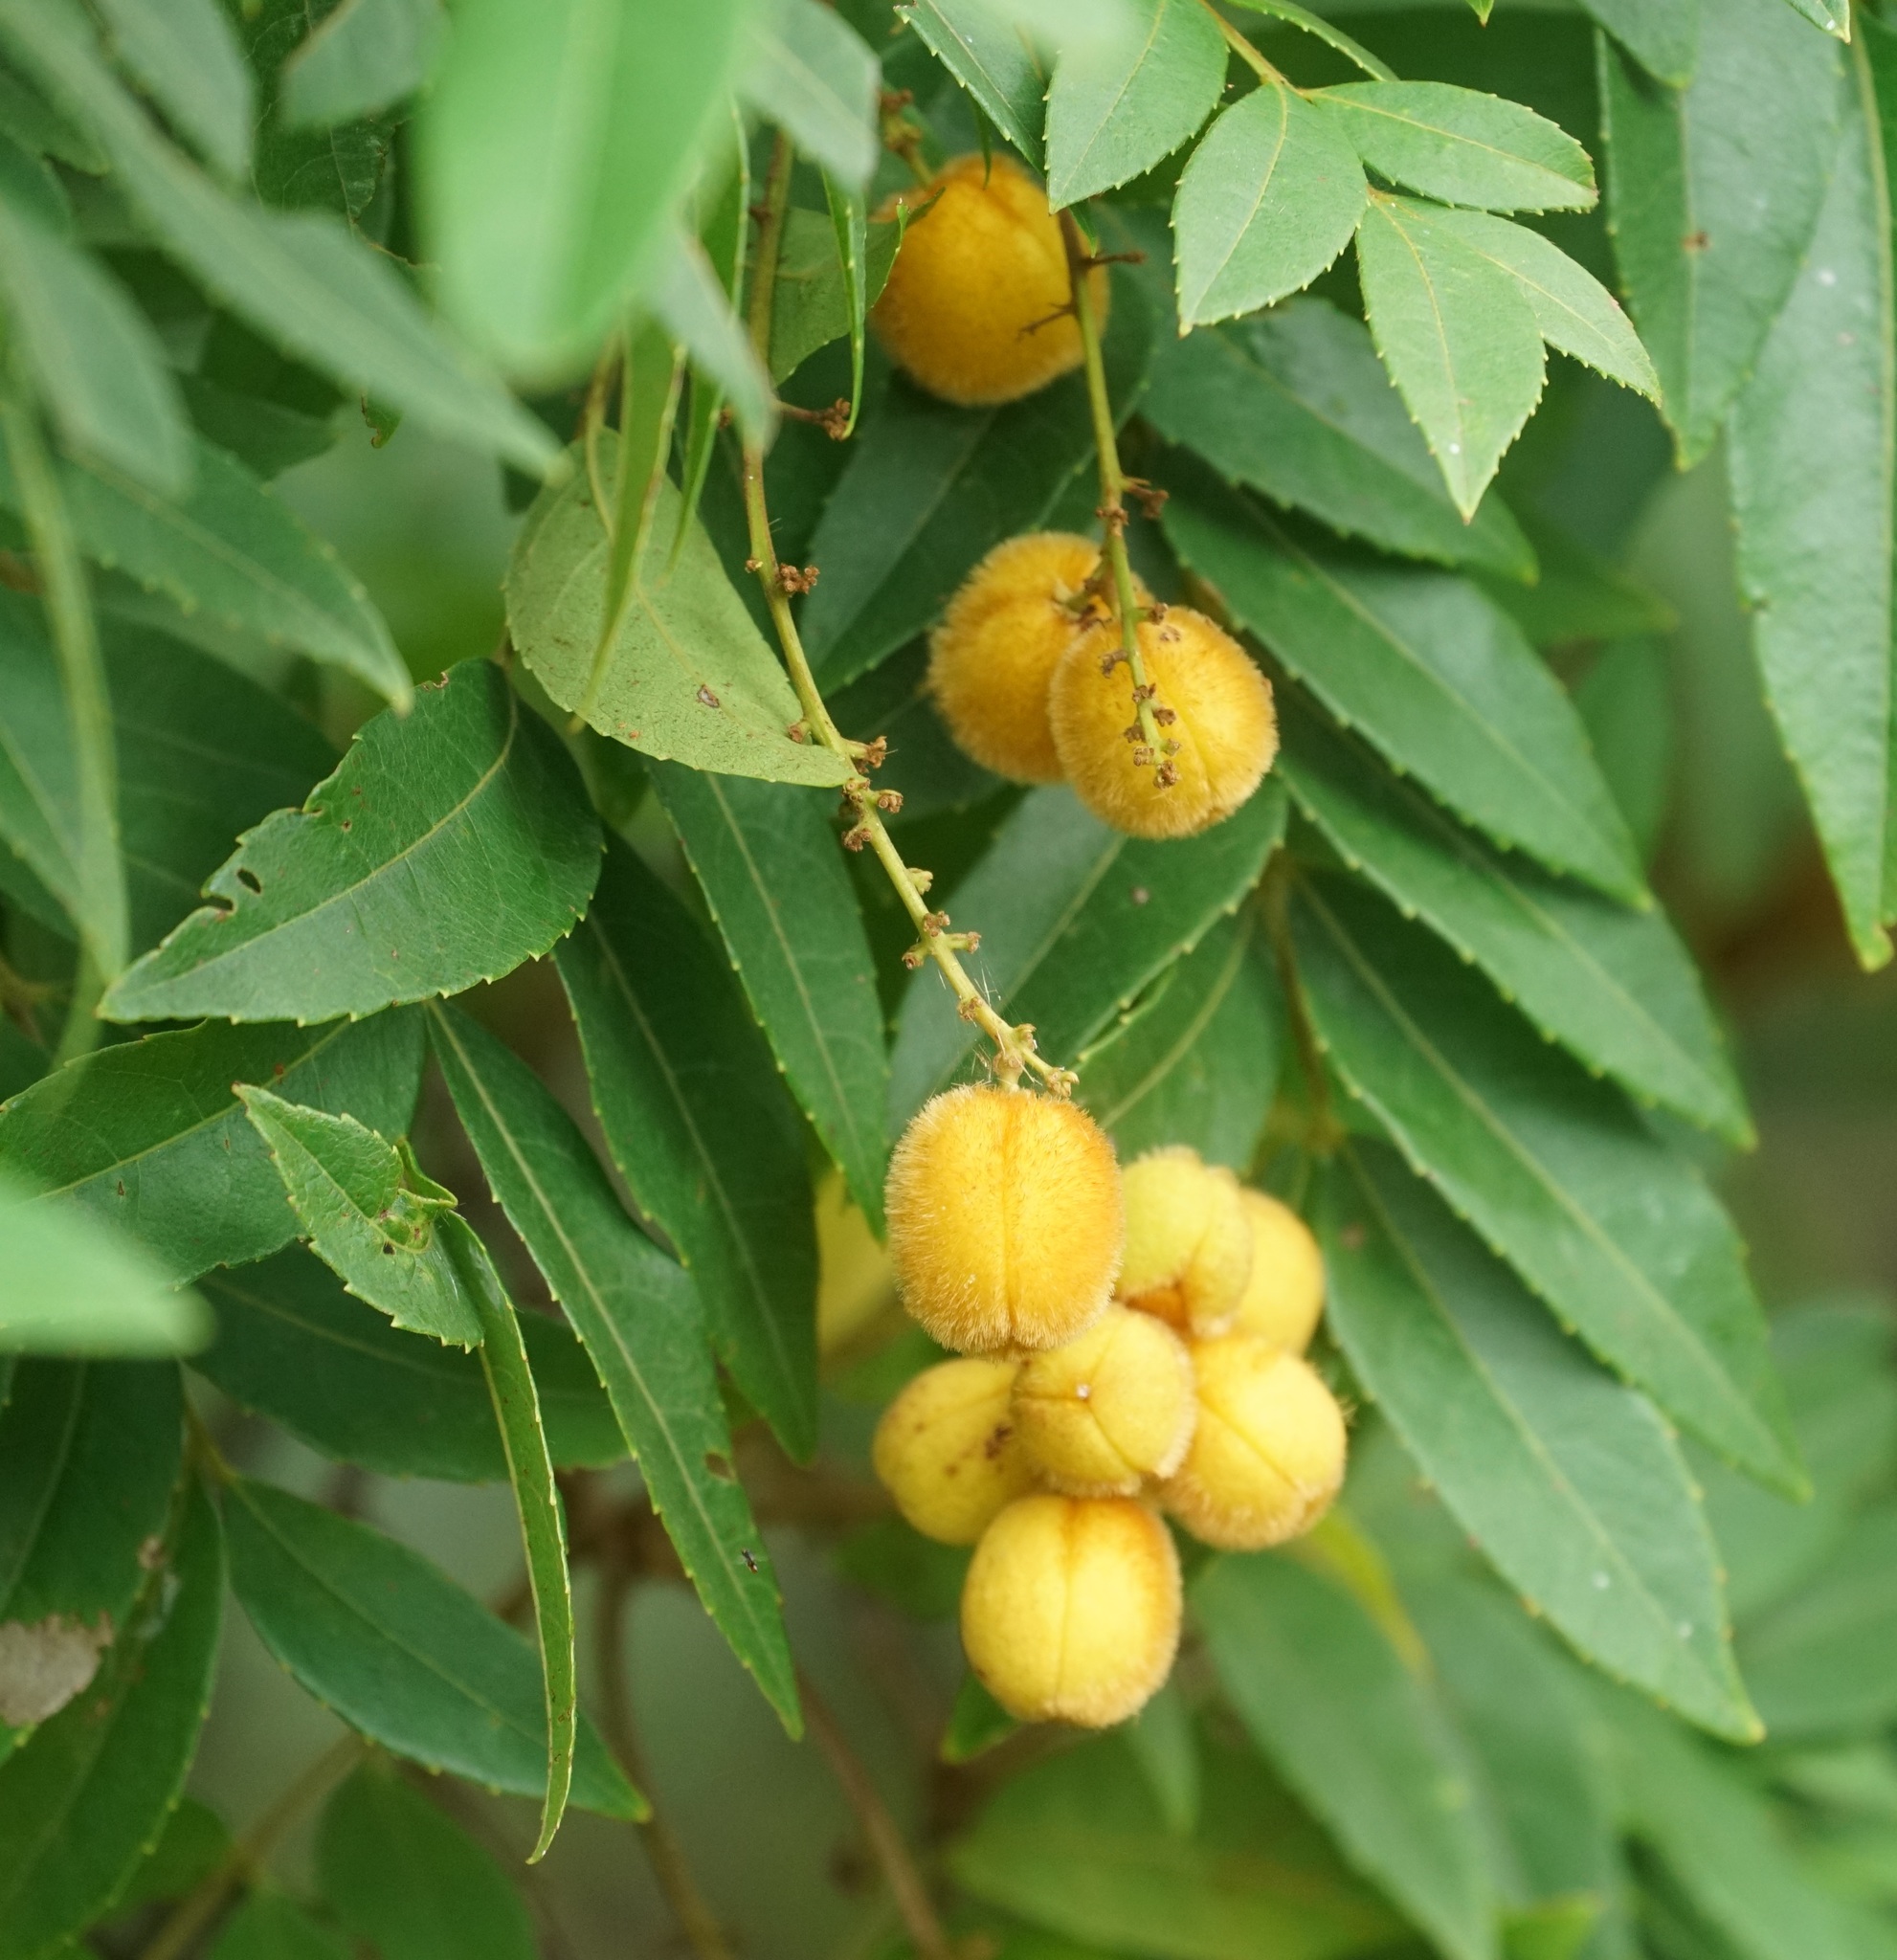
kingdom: Plantae
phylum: Tracheophyta
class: Magnoliopsida
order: Sapindales
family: Sapindaceae
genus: Jagera
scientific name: Jagera pseudorhus
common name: Fern-leaf-tamarind
